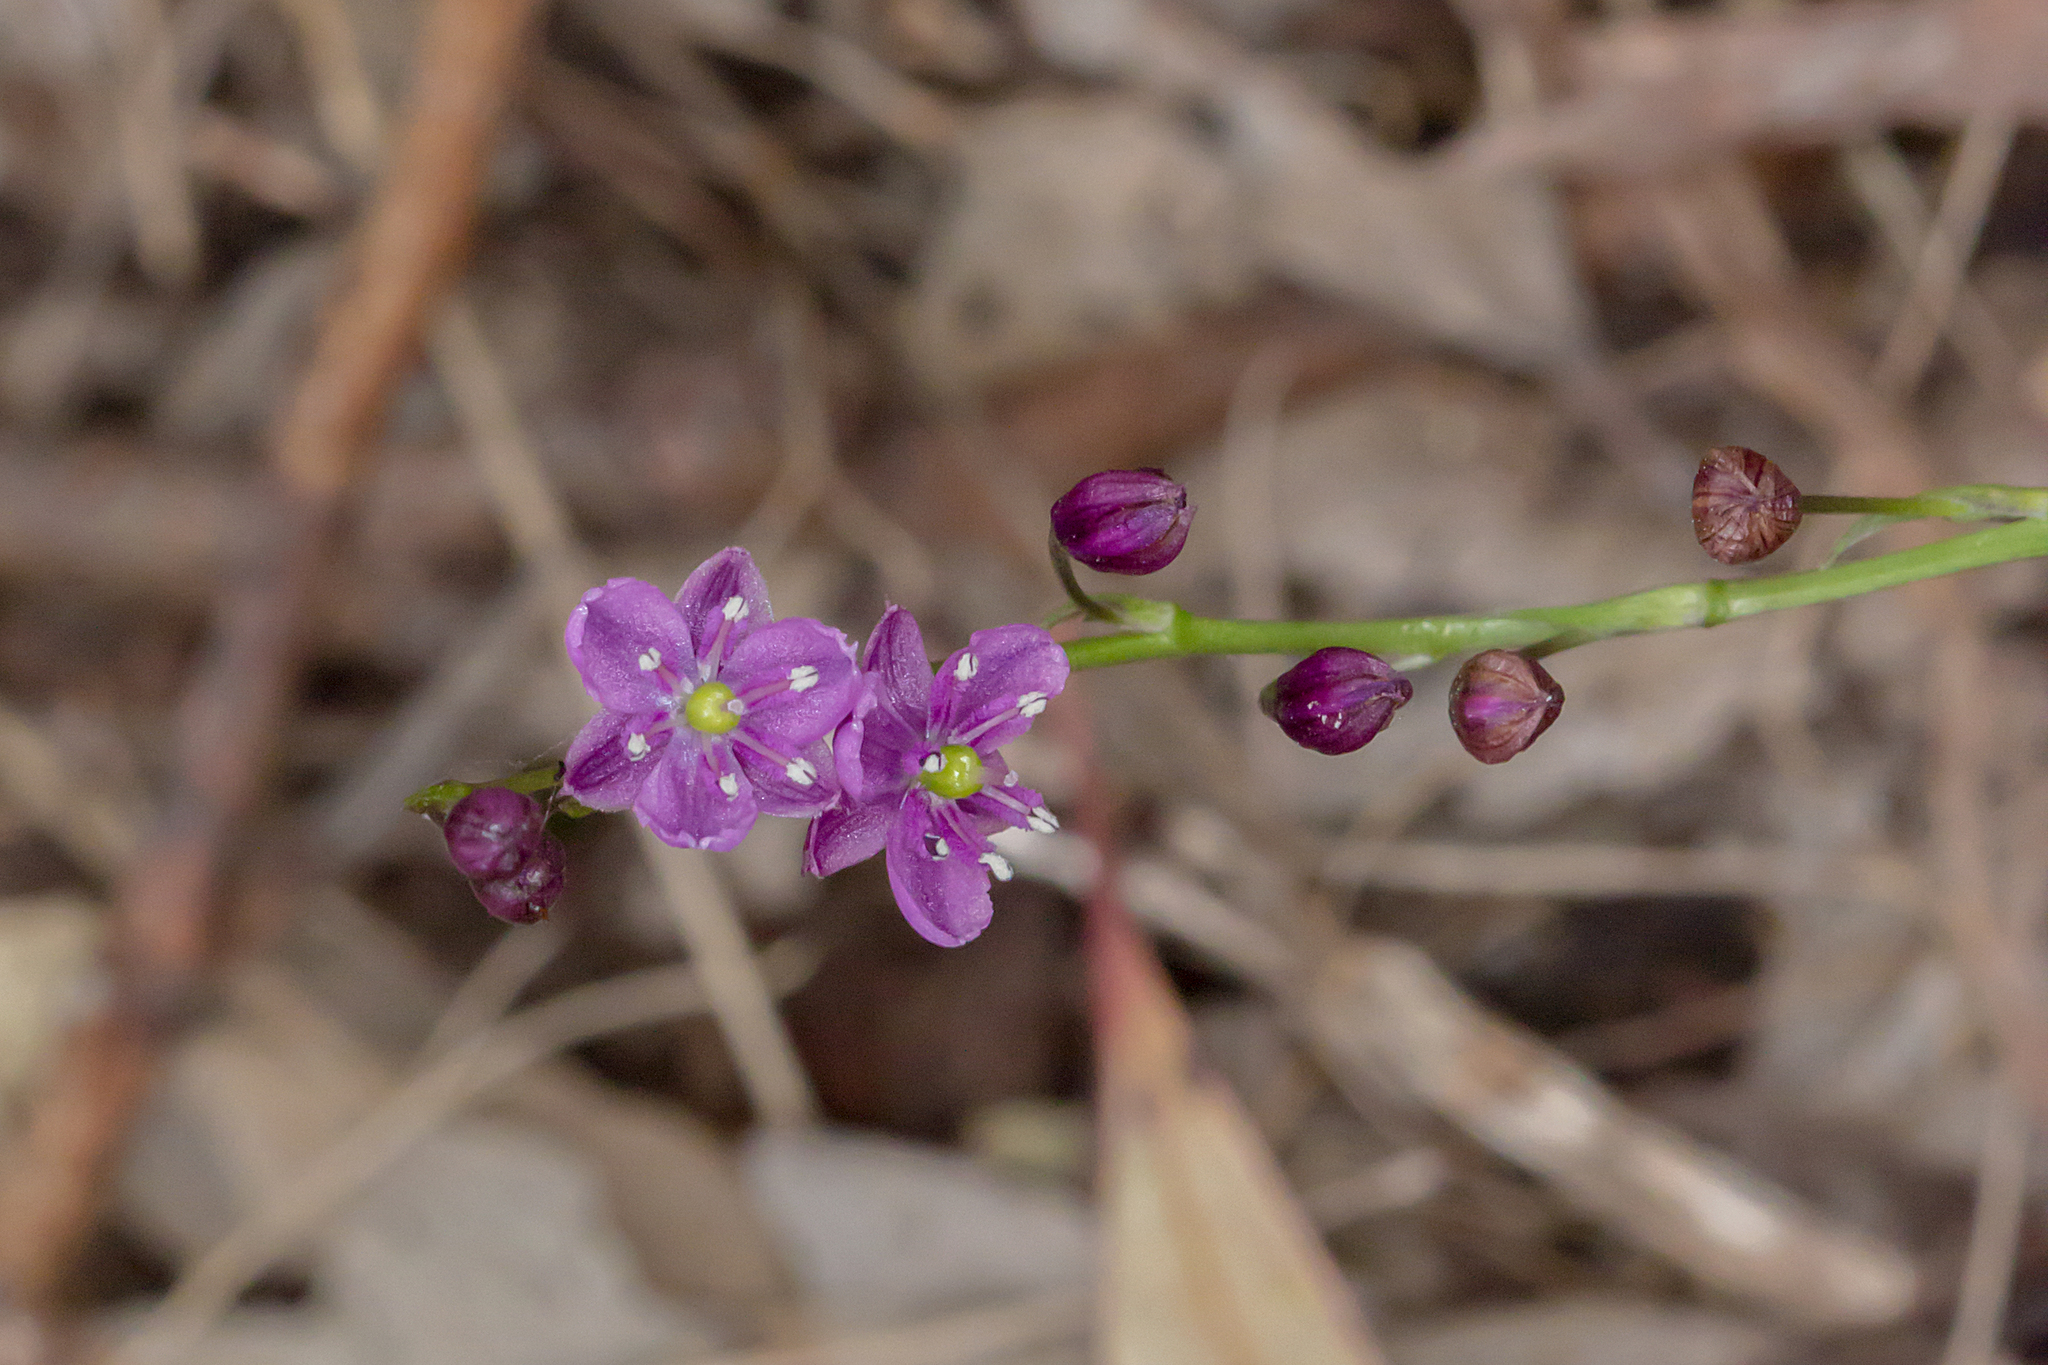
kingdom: Plantae
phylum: Tracheophyta
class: Liliopsida
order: Asparagales
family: Asparagaceae
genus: Arthropodium
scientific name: Arthropodium minus
